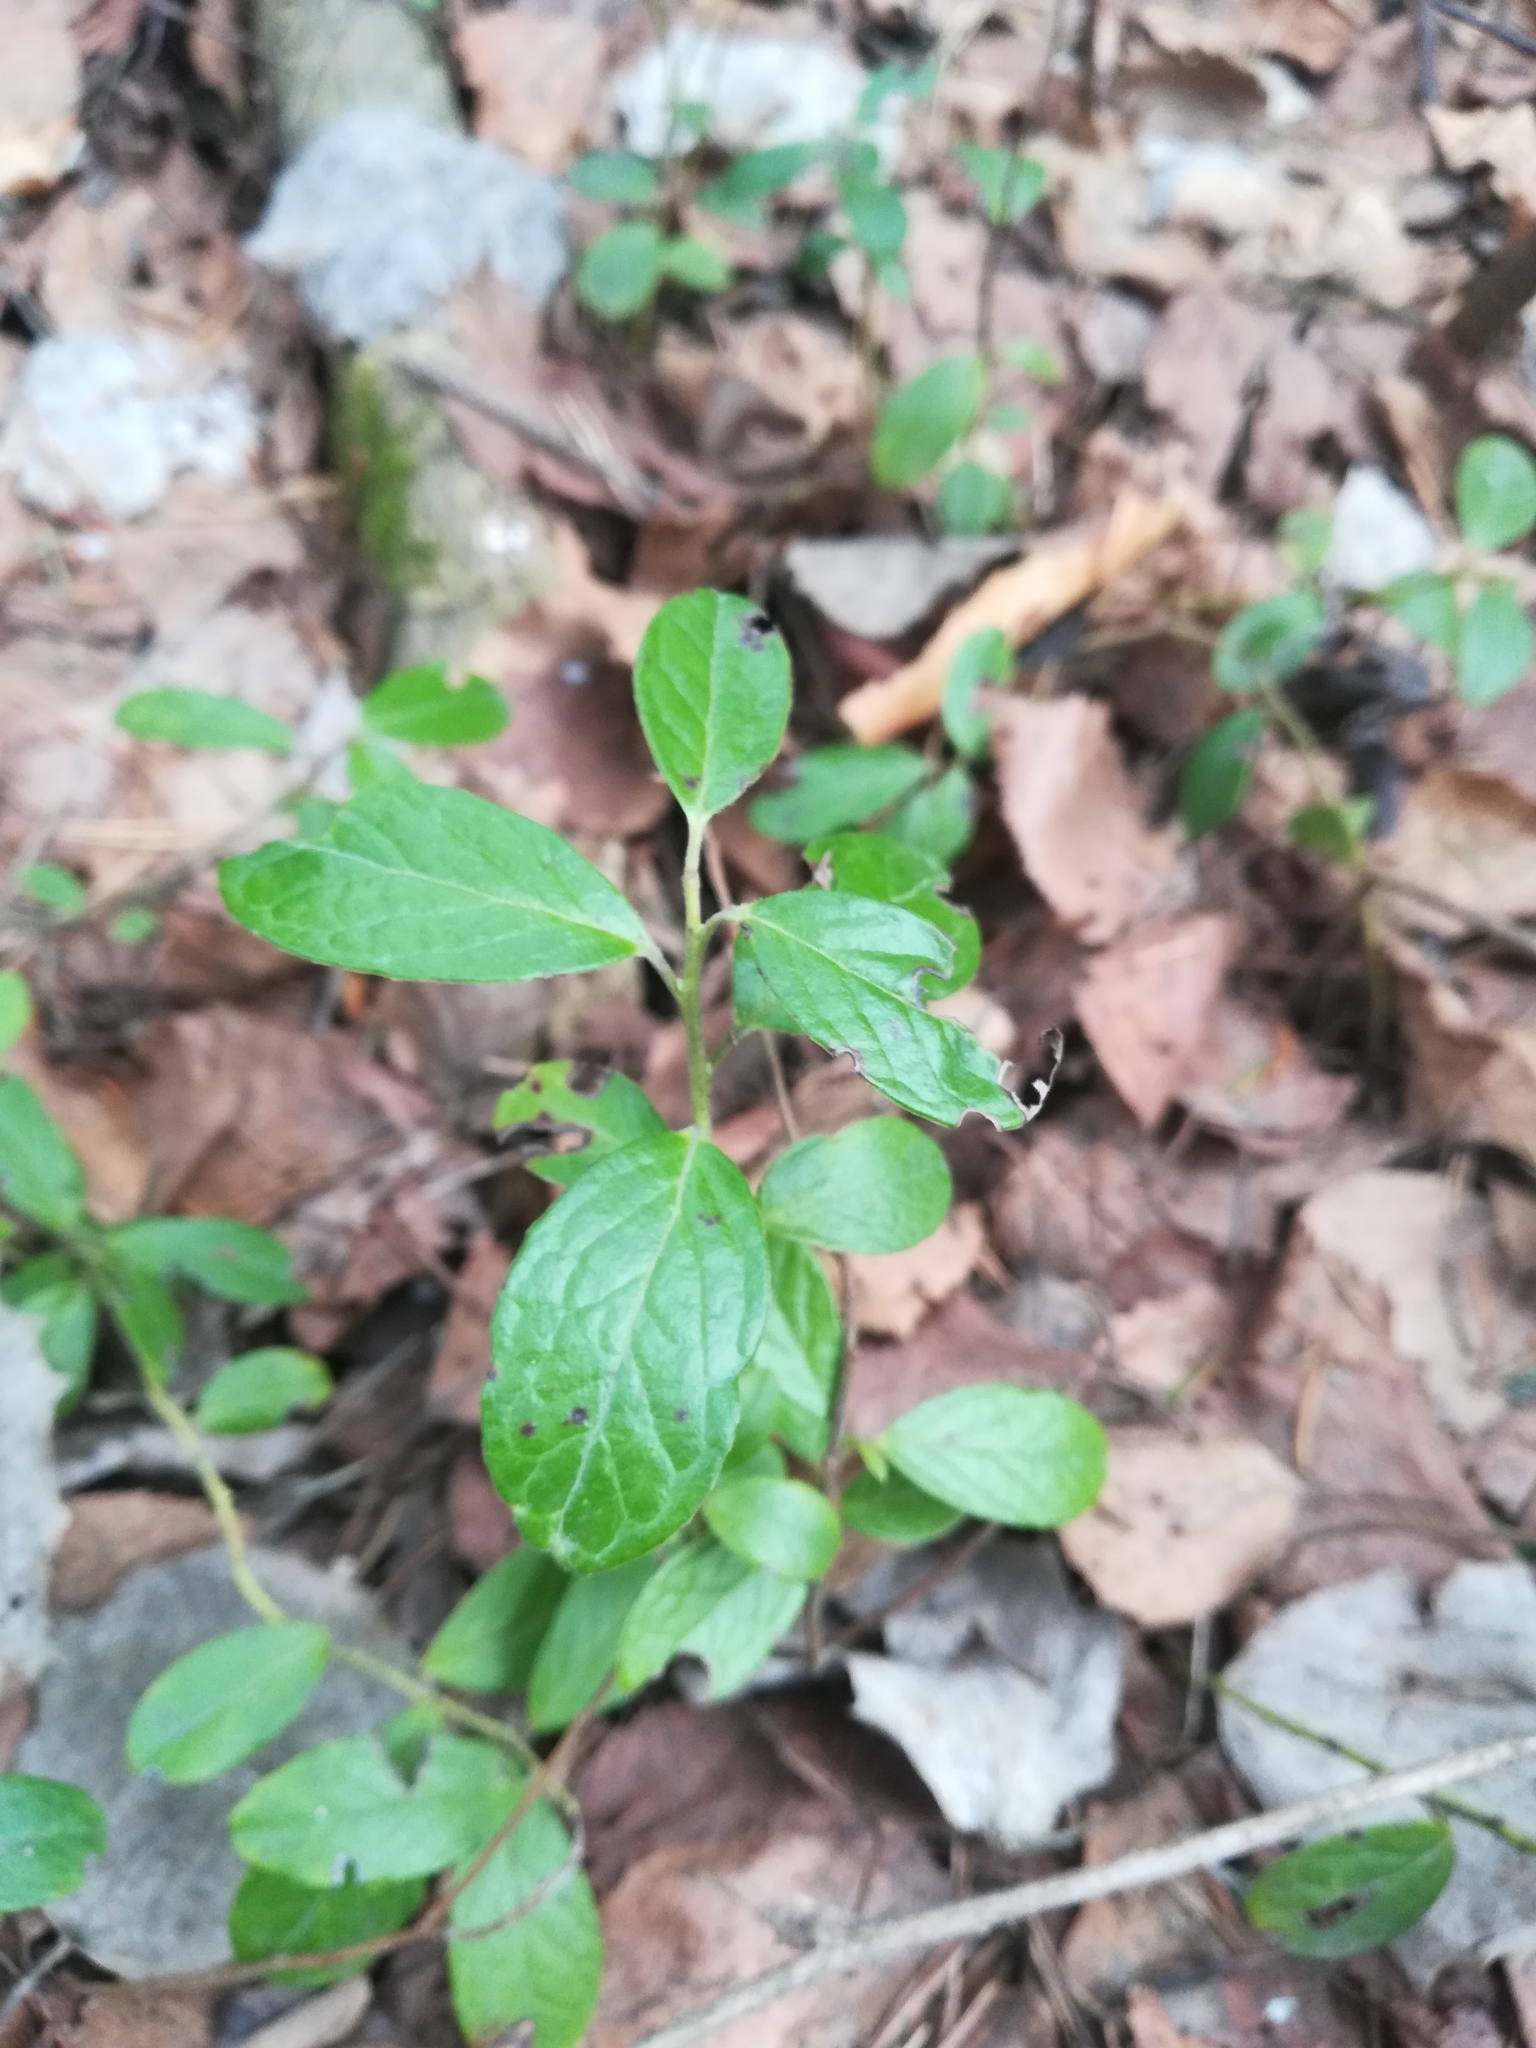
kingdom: Plantae
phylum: Tracheophyta
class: Magnoliopsida
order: Ericales
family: Ericaceae
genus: Vaccinium
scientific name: Vaccinium vitis-idaea
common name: Cowberry
